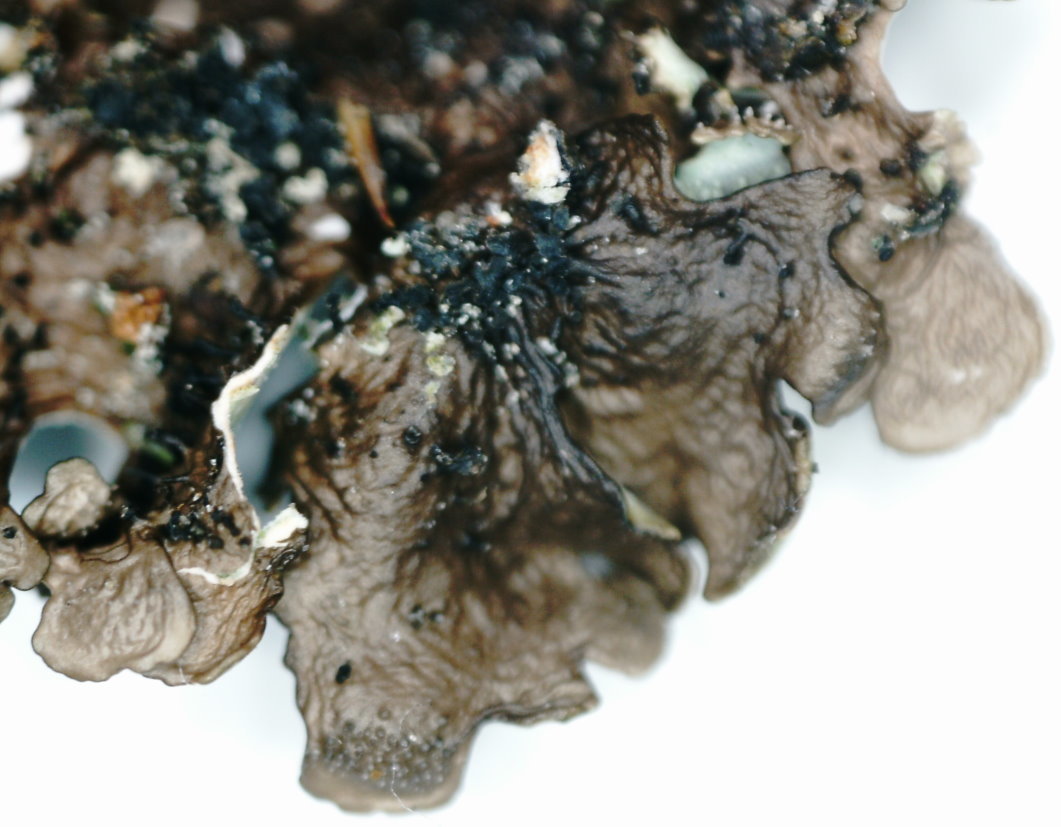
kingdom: Fungi
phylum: Ascomycota
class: Lecanoromycetes
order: Lecanorales
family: Parmeliaceae
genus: Xanthoparmelia
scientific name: Xanthoparmelia conspersa
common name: Peppered rock shield
